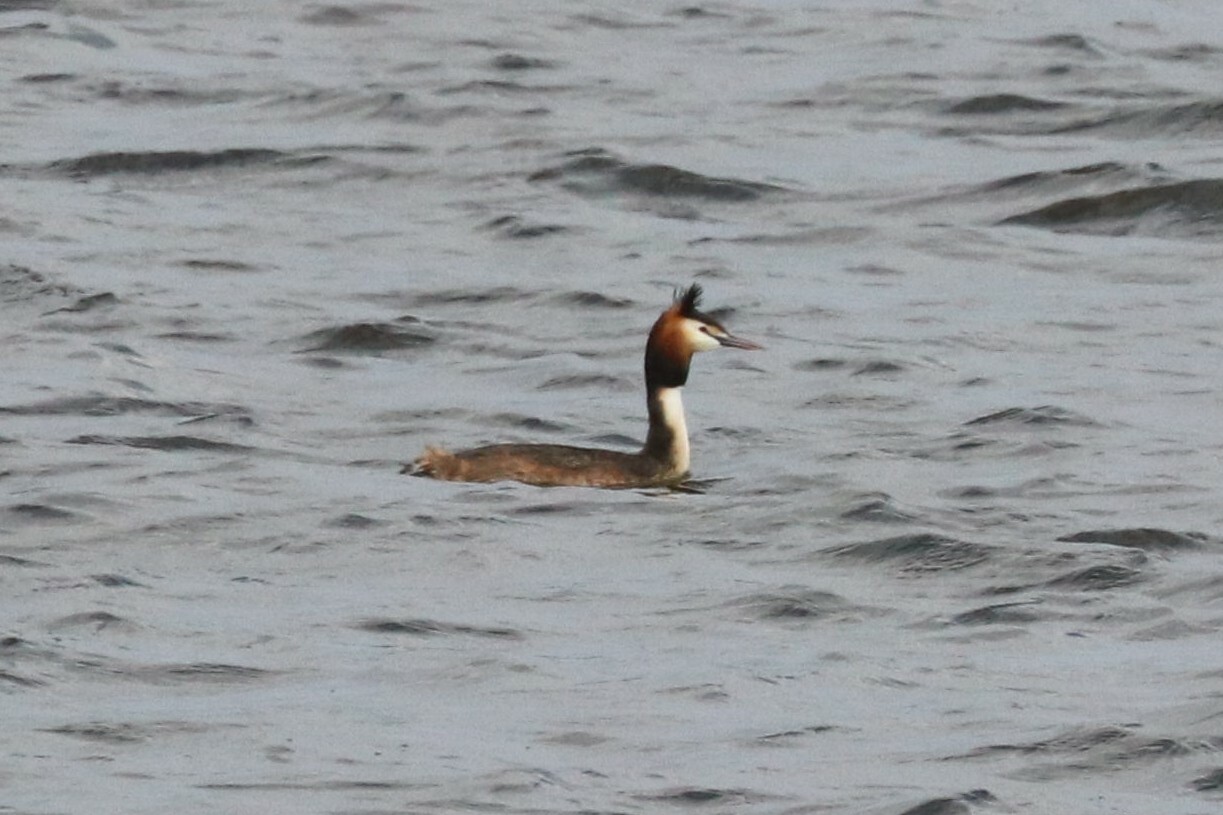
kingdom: Animalia
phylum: Chordata
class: Aves
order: Podicipediformes
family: Podicipedidae
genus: Podiceps
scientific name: Podiceps cristatus
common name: Great crested grebe
